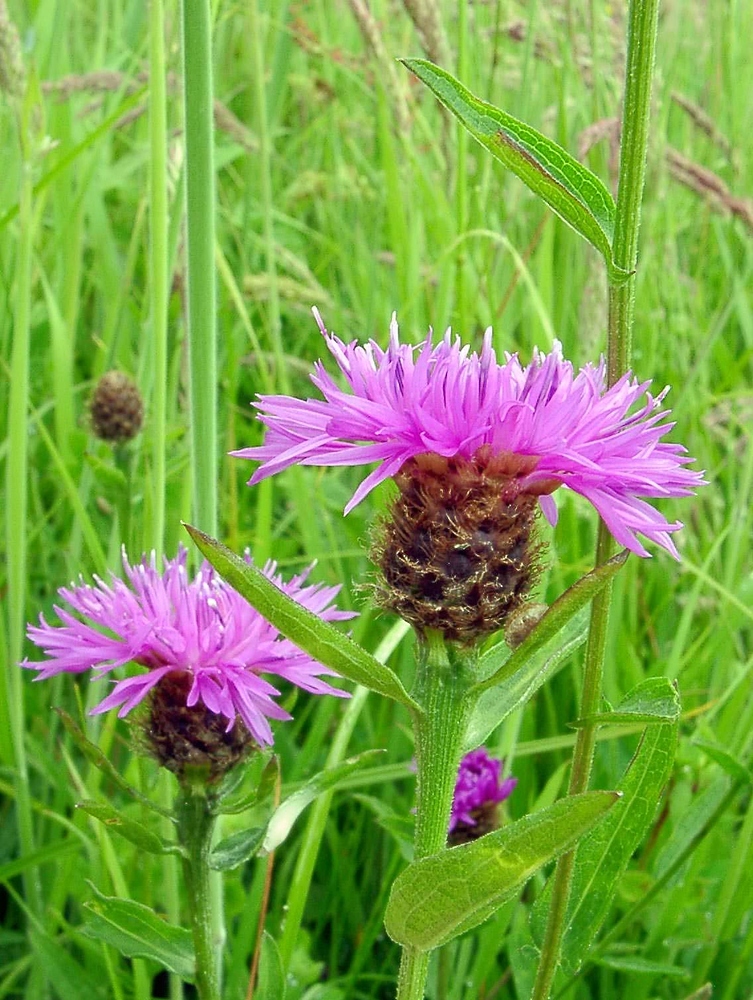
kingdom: Plantae
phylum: Tracheophyta
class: Magnoliopsida
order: Asterales
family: Asteraceae
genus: Centaurea
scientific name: Centaurea nigra
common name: Lesser knapweed
